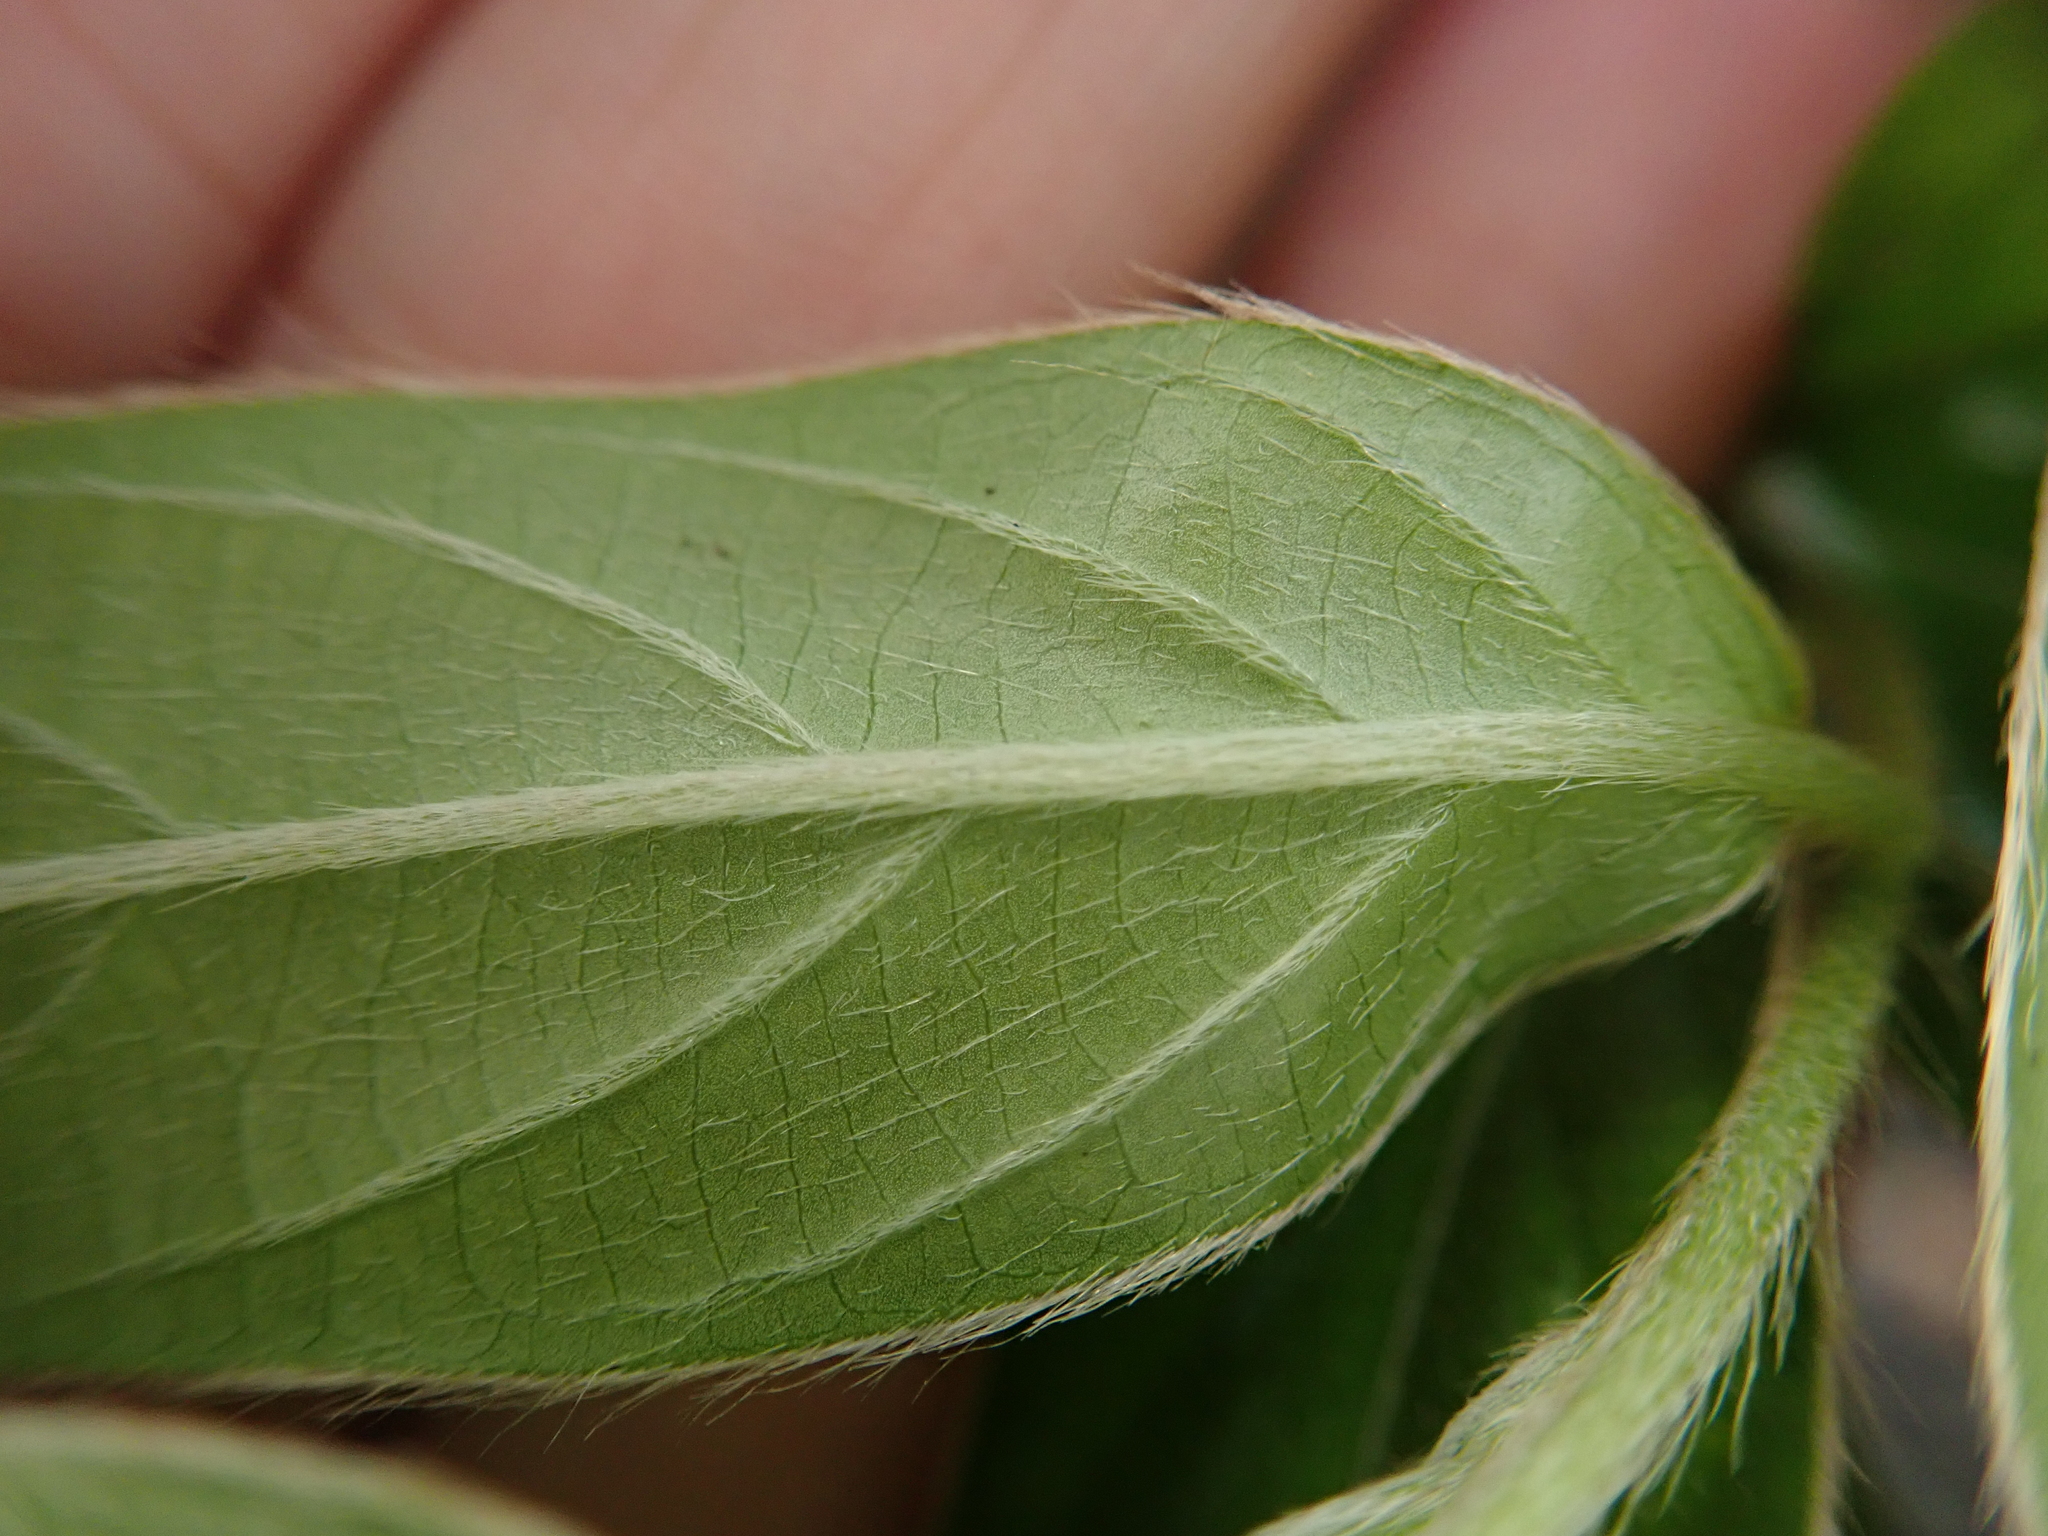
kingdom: Plantae
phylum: Tracheophyta
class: Magnoliopsida
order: Ericales
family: Ebenaceae
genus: Diospyros
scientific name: Diospyros eriantha
